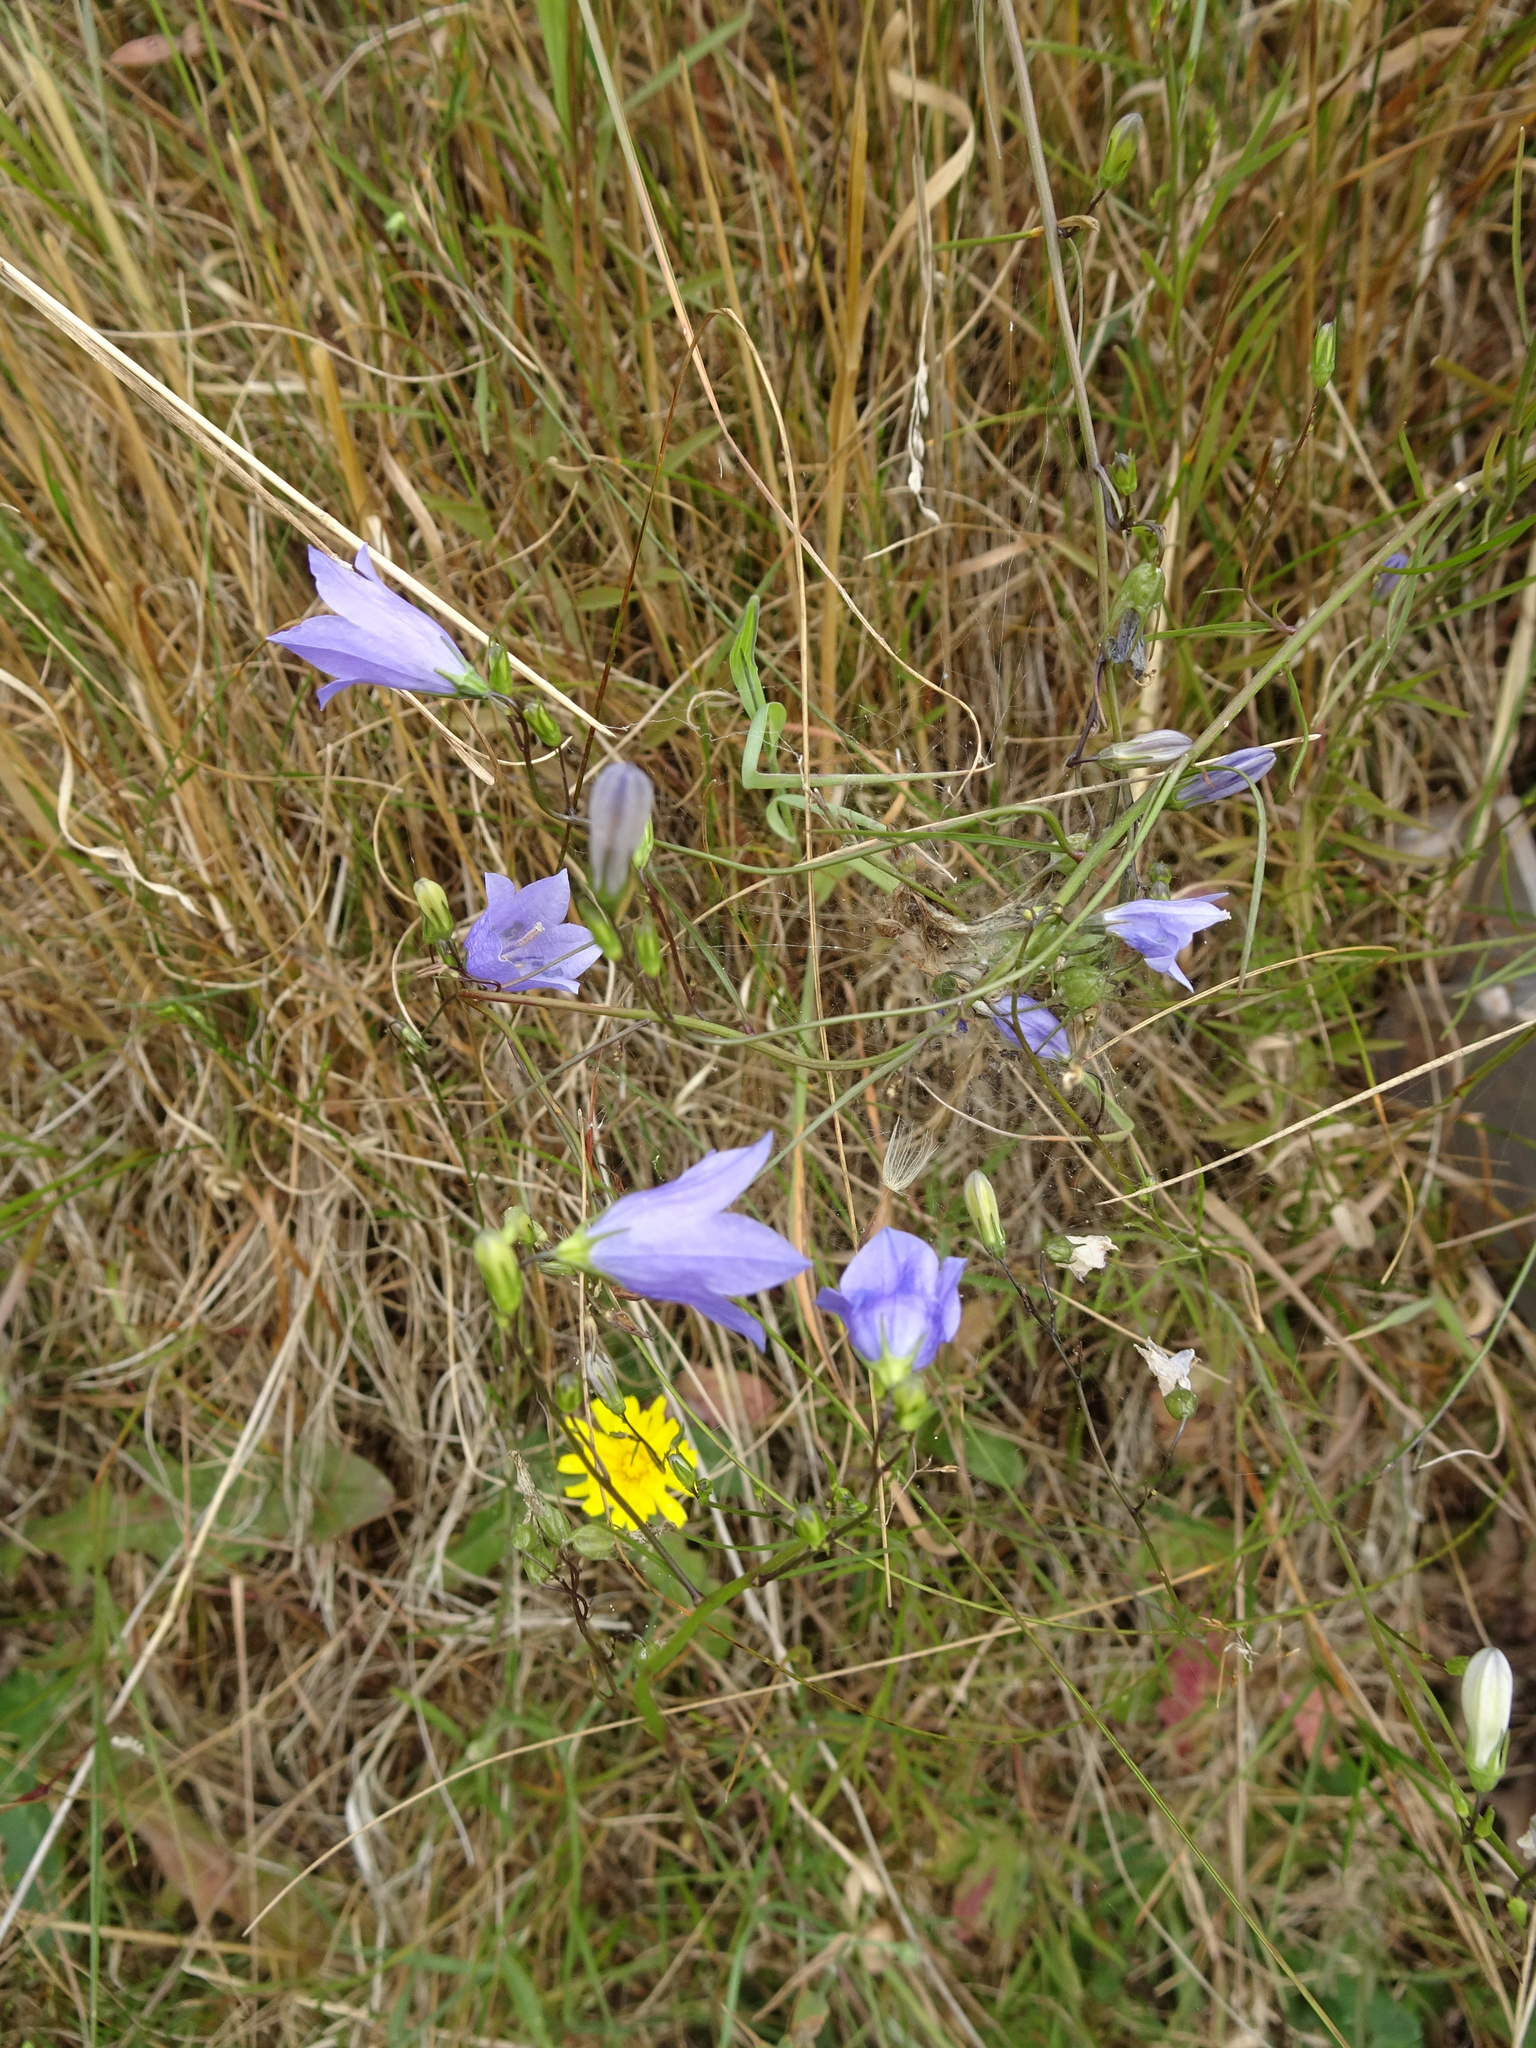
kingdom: Plantae
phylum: Tracheophyta
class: Magnoliopsida
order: Asterales
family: Campanulaceae
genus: Campanula
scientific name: Campanula rotundifolia
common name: Harebell
